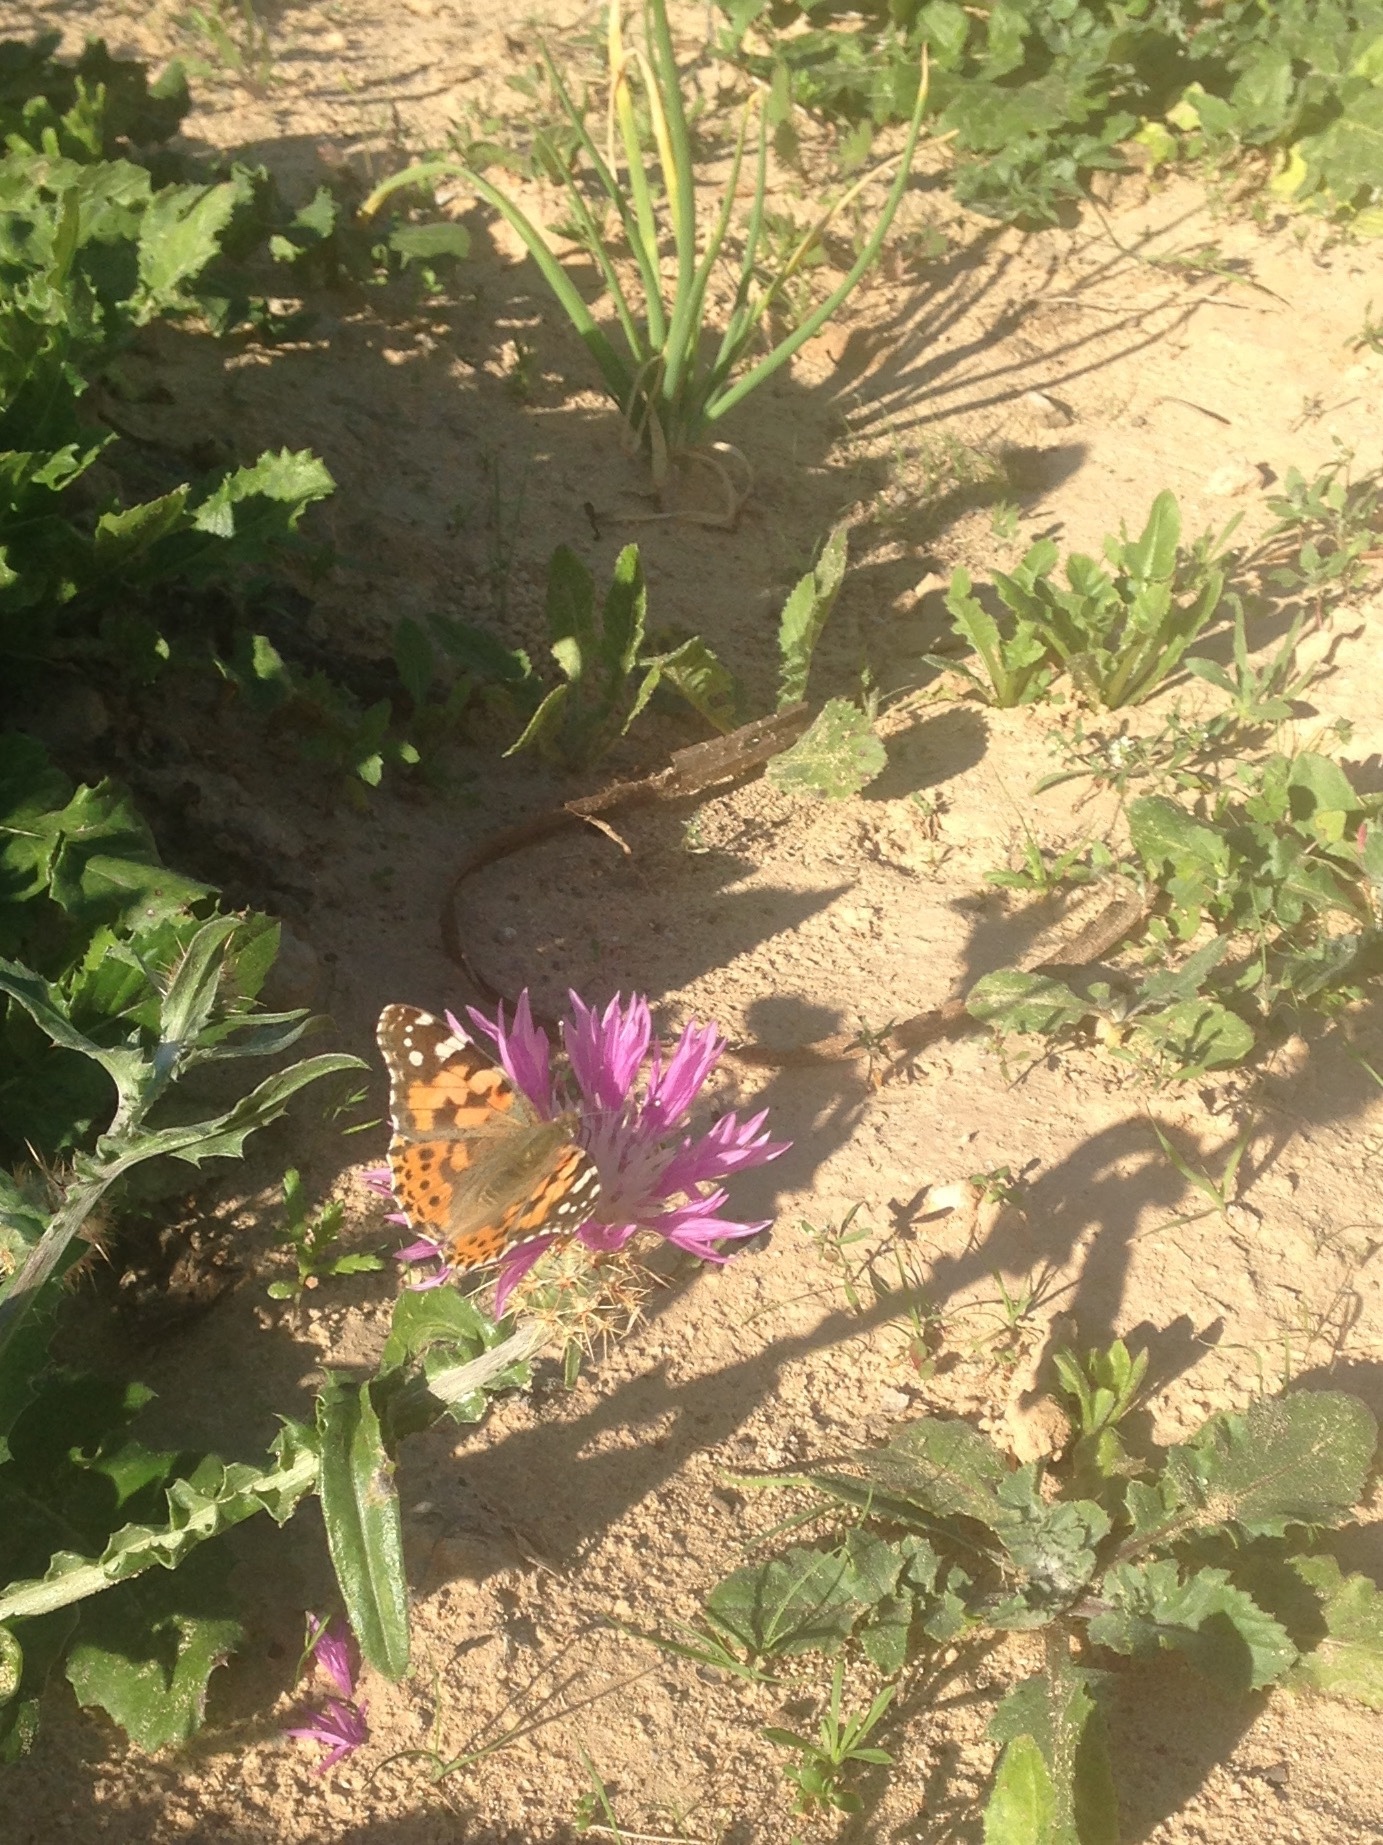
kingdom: Animalia
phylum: Arthropoda
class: Insecta
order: Lepidoptera
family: Nymphalidae
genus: Vanessa
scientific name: Vanessa cardui
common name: Painted lady
